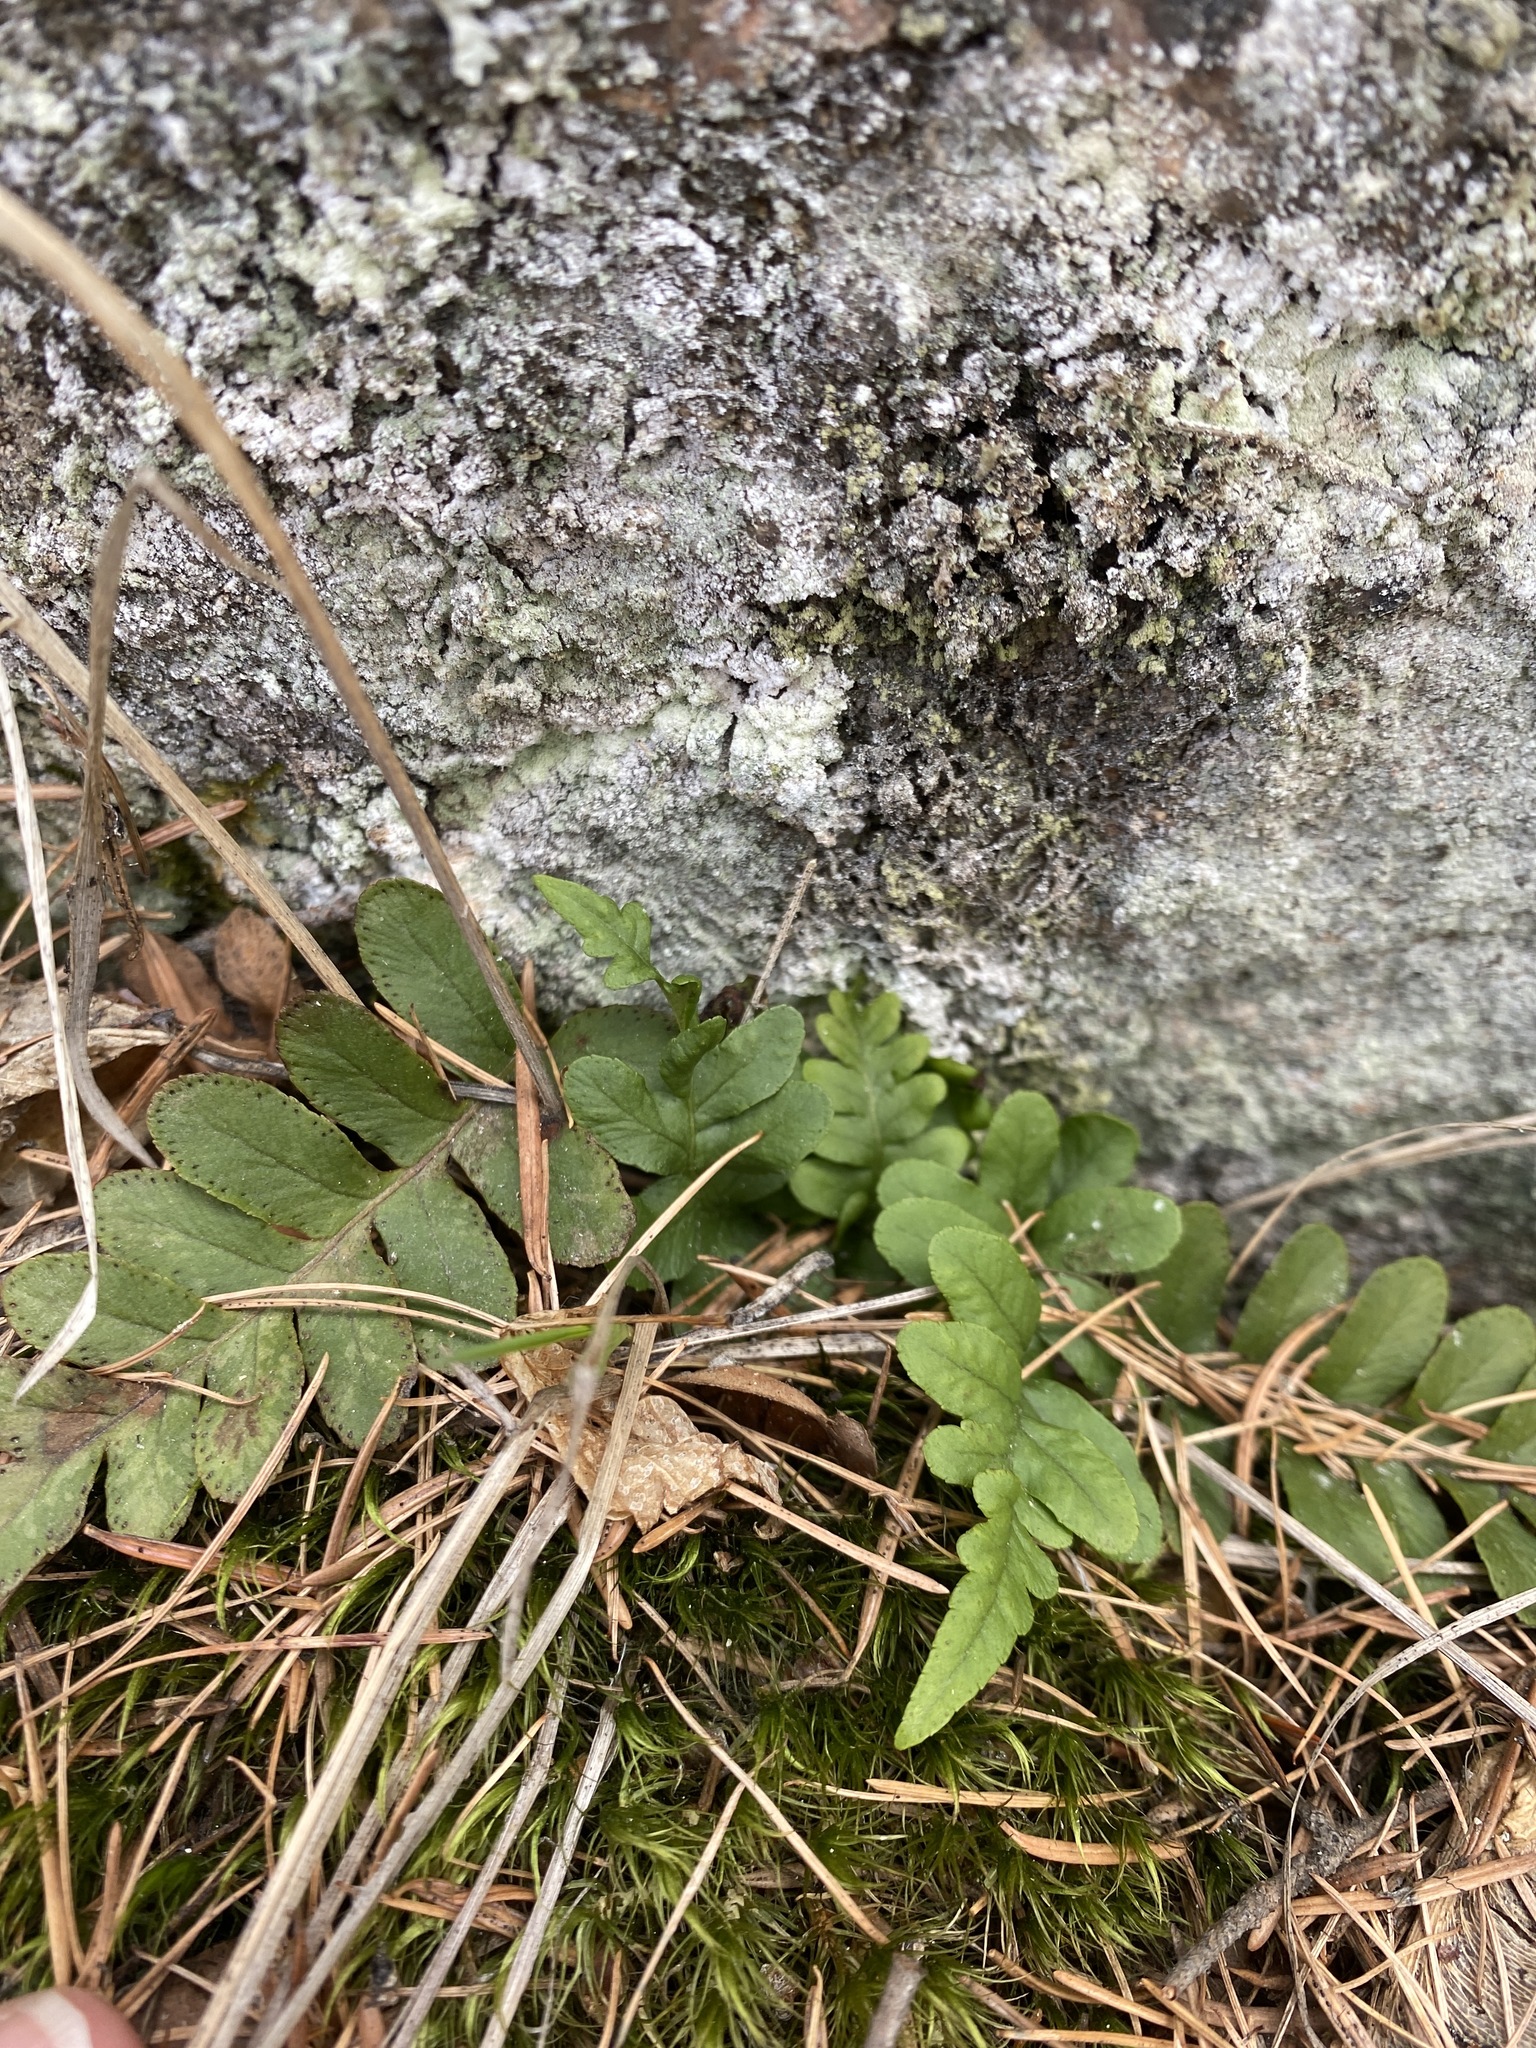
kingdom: Plantae
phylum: Tracheophyta
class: Polypodiopsida
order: Polypodiales
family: Polypodiaceae
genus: Polypodium
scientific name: Polypodium hesperium
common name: Western polypody
